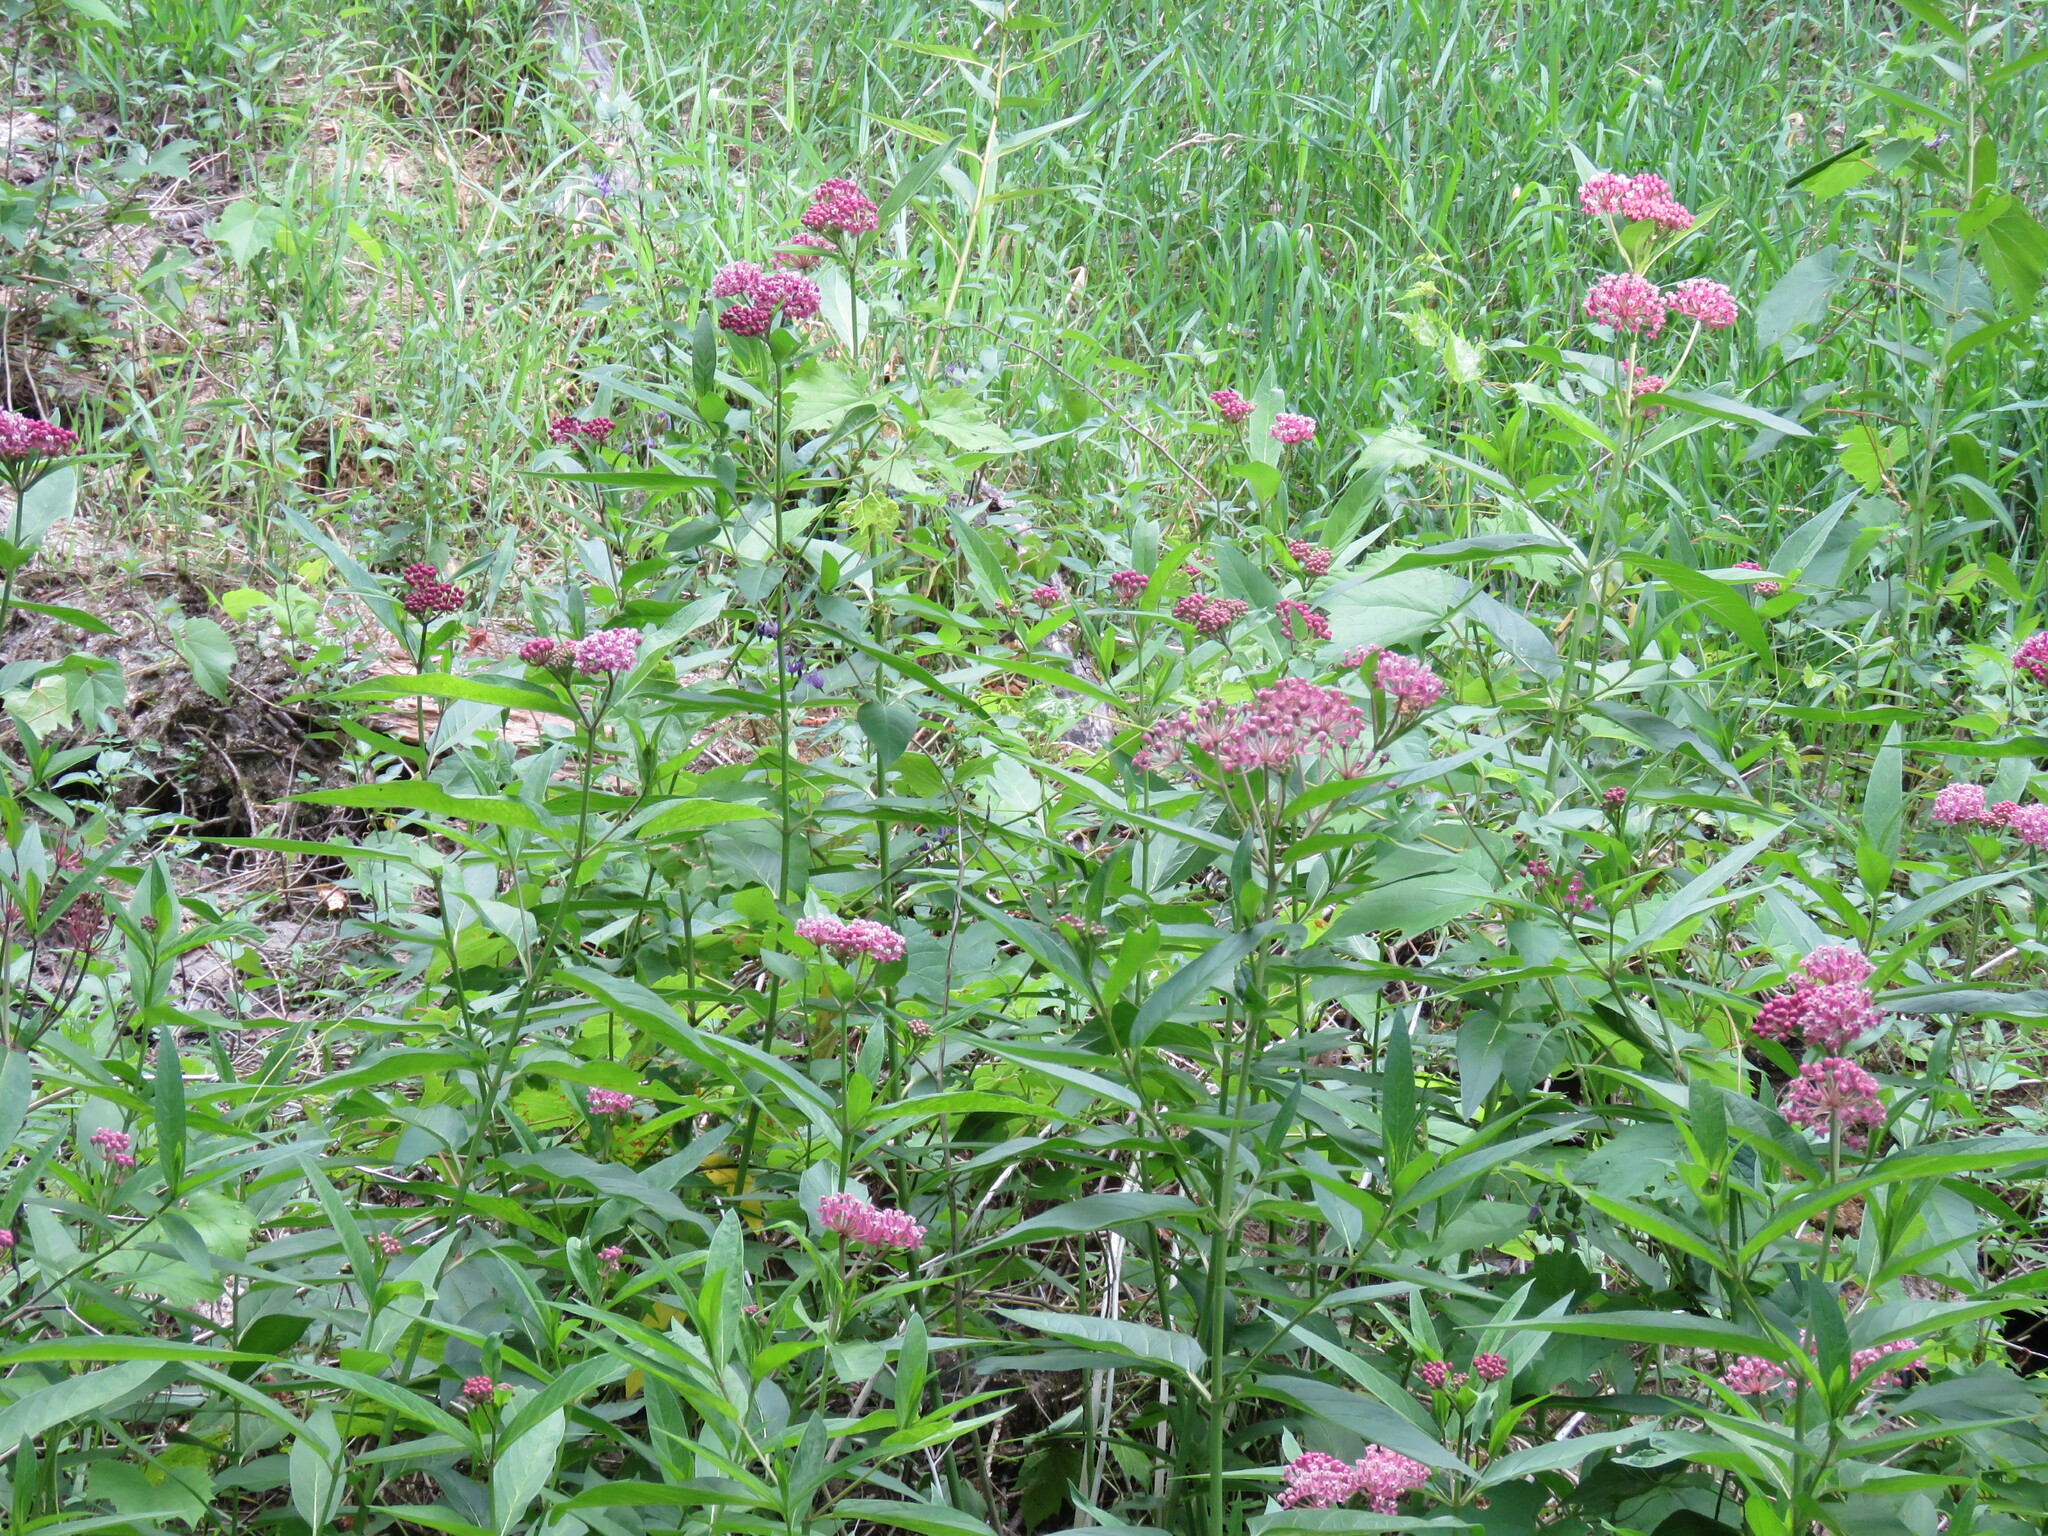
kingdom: Plantae
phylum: Tracheophyta
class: Magnoliopsida
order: Gentianales
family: Apocynaceae
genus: Asclepias
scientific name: Asclepias incarnata
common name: Swamp milkweed
